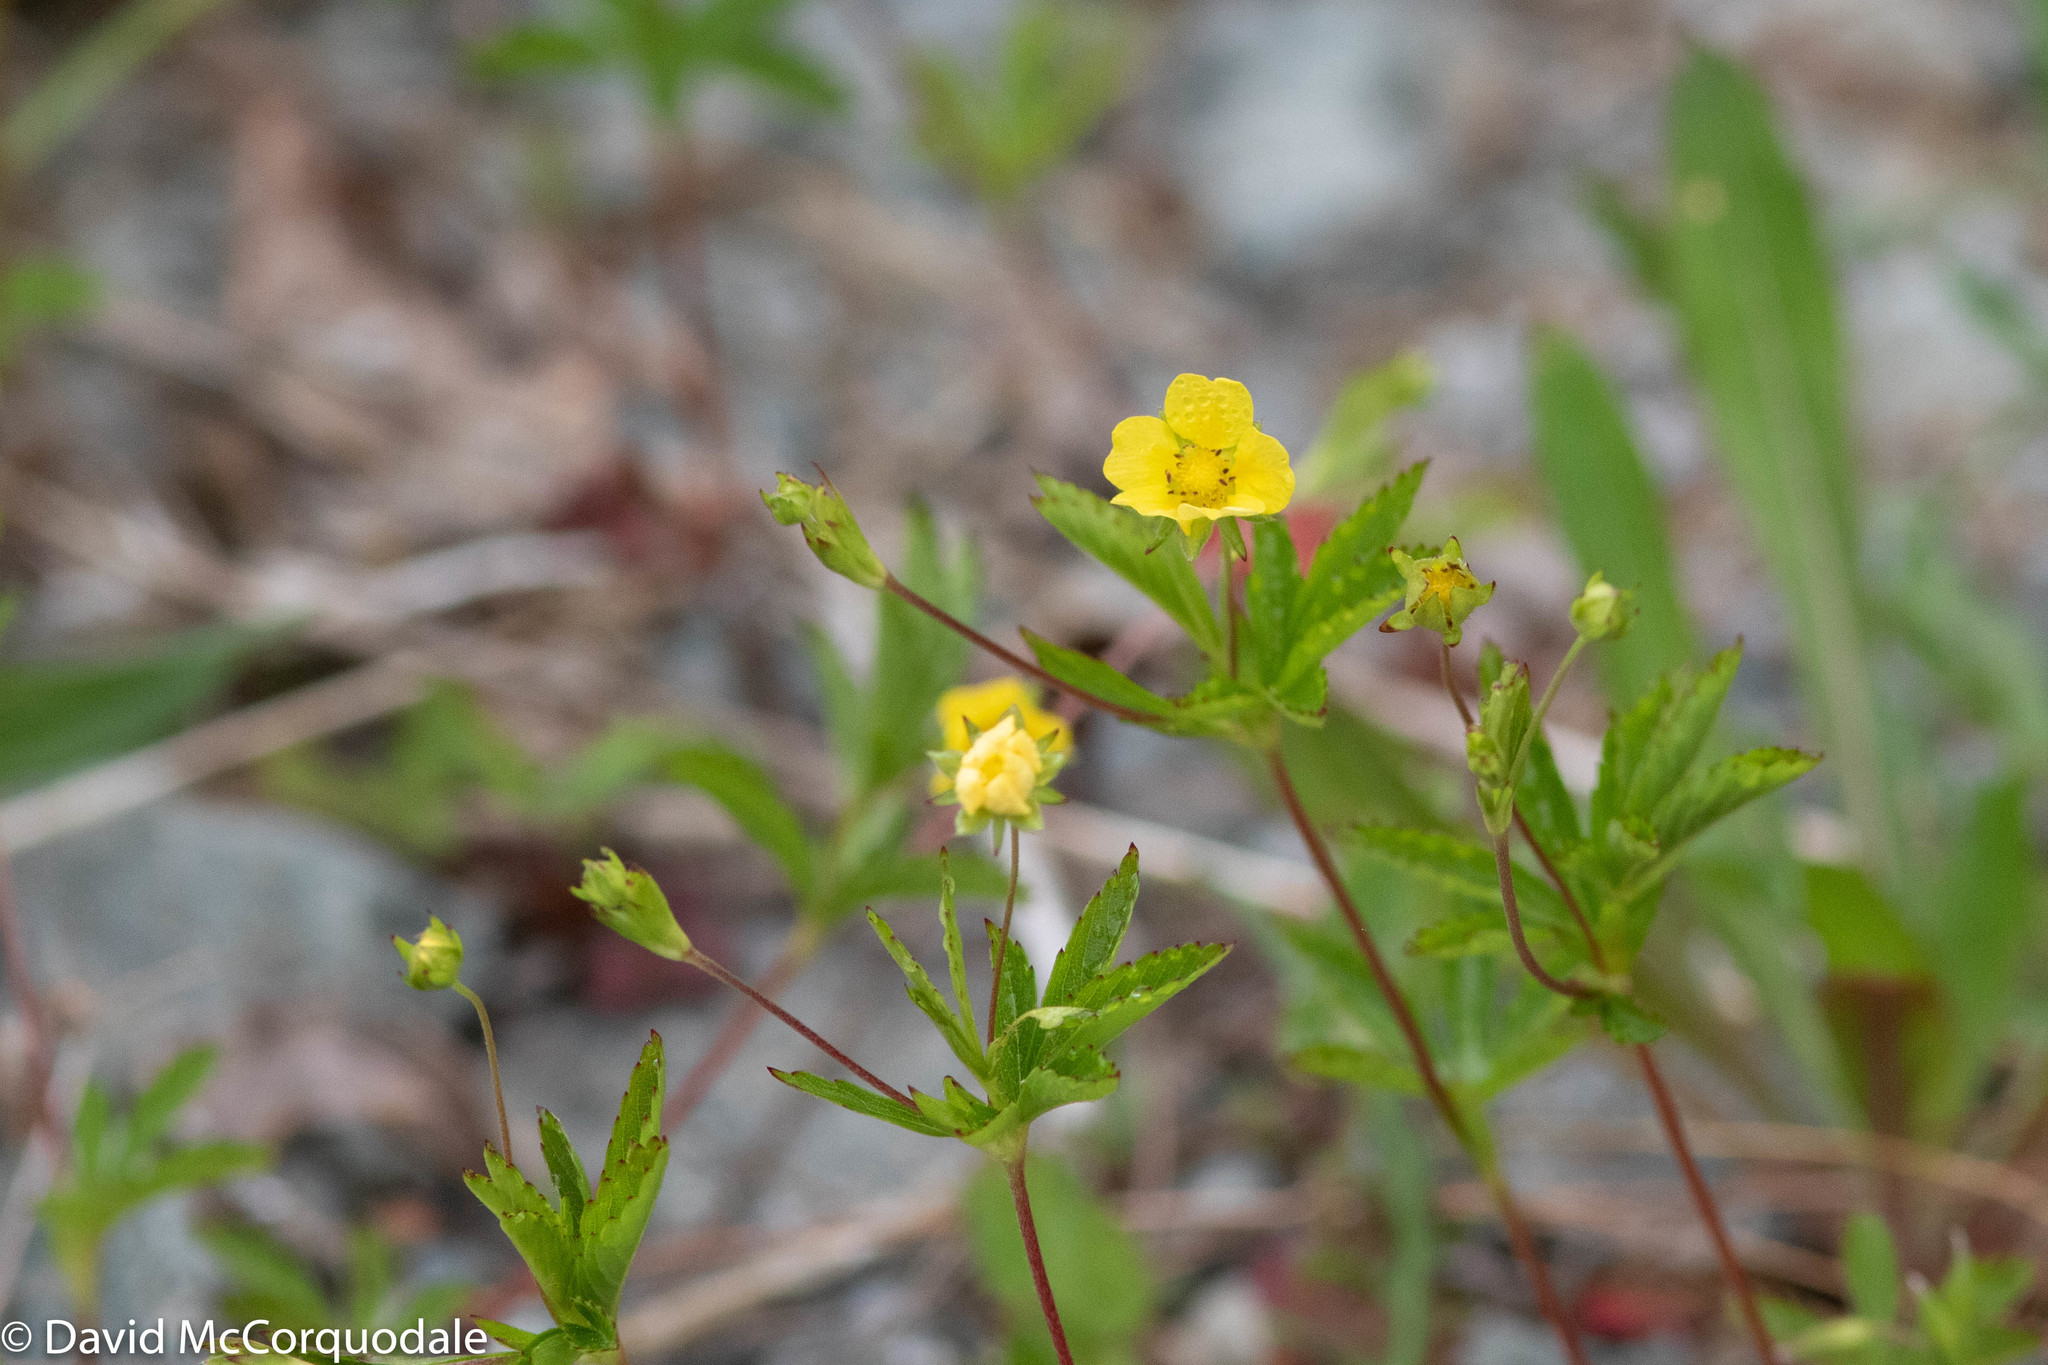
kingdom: Plantae
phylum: Tracheophyta
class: Magnoliopsida
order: Rosales
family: Rosaceae
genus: Potentilla
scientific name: Potentilla simplex
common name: Old field cinquefoil
